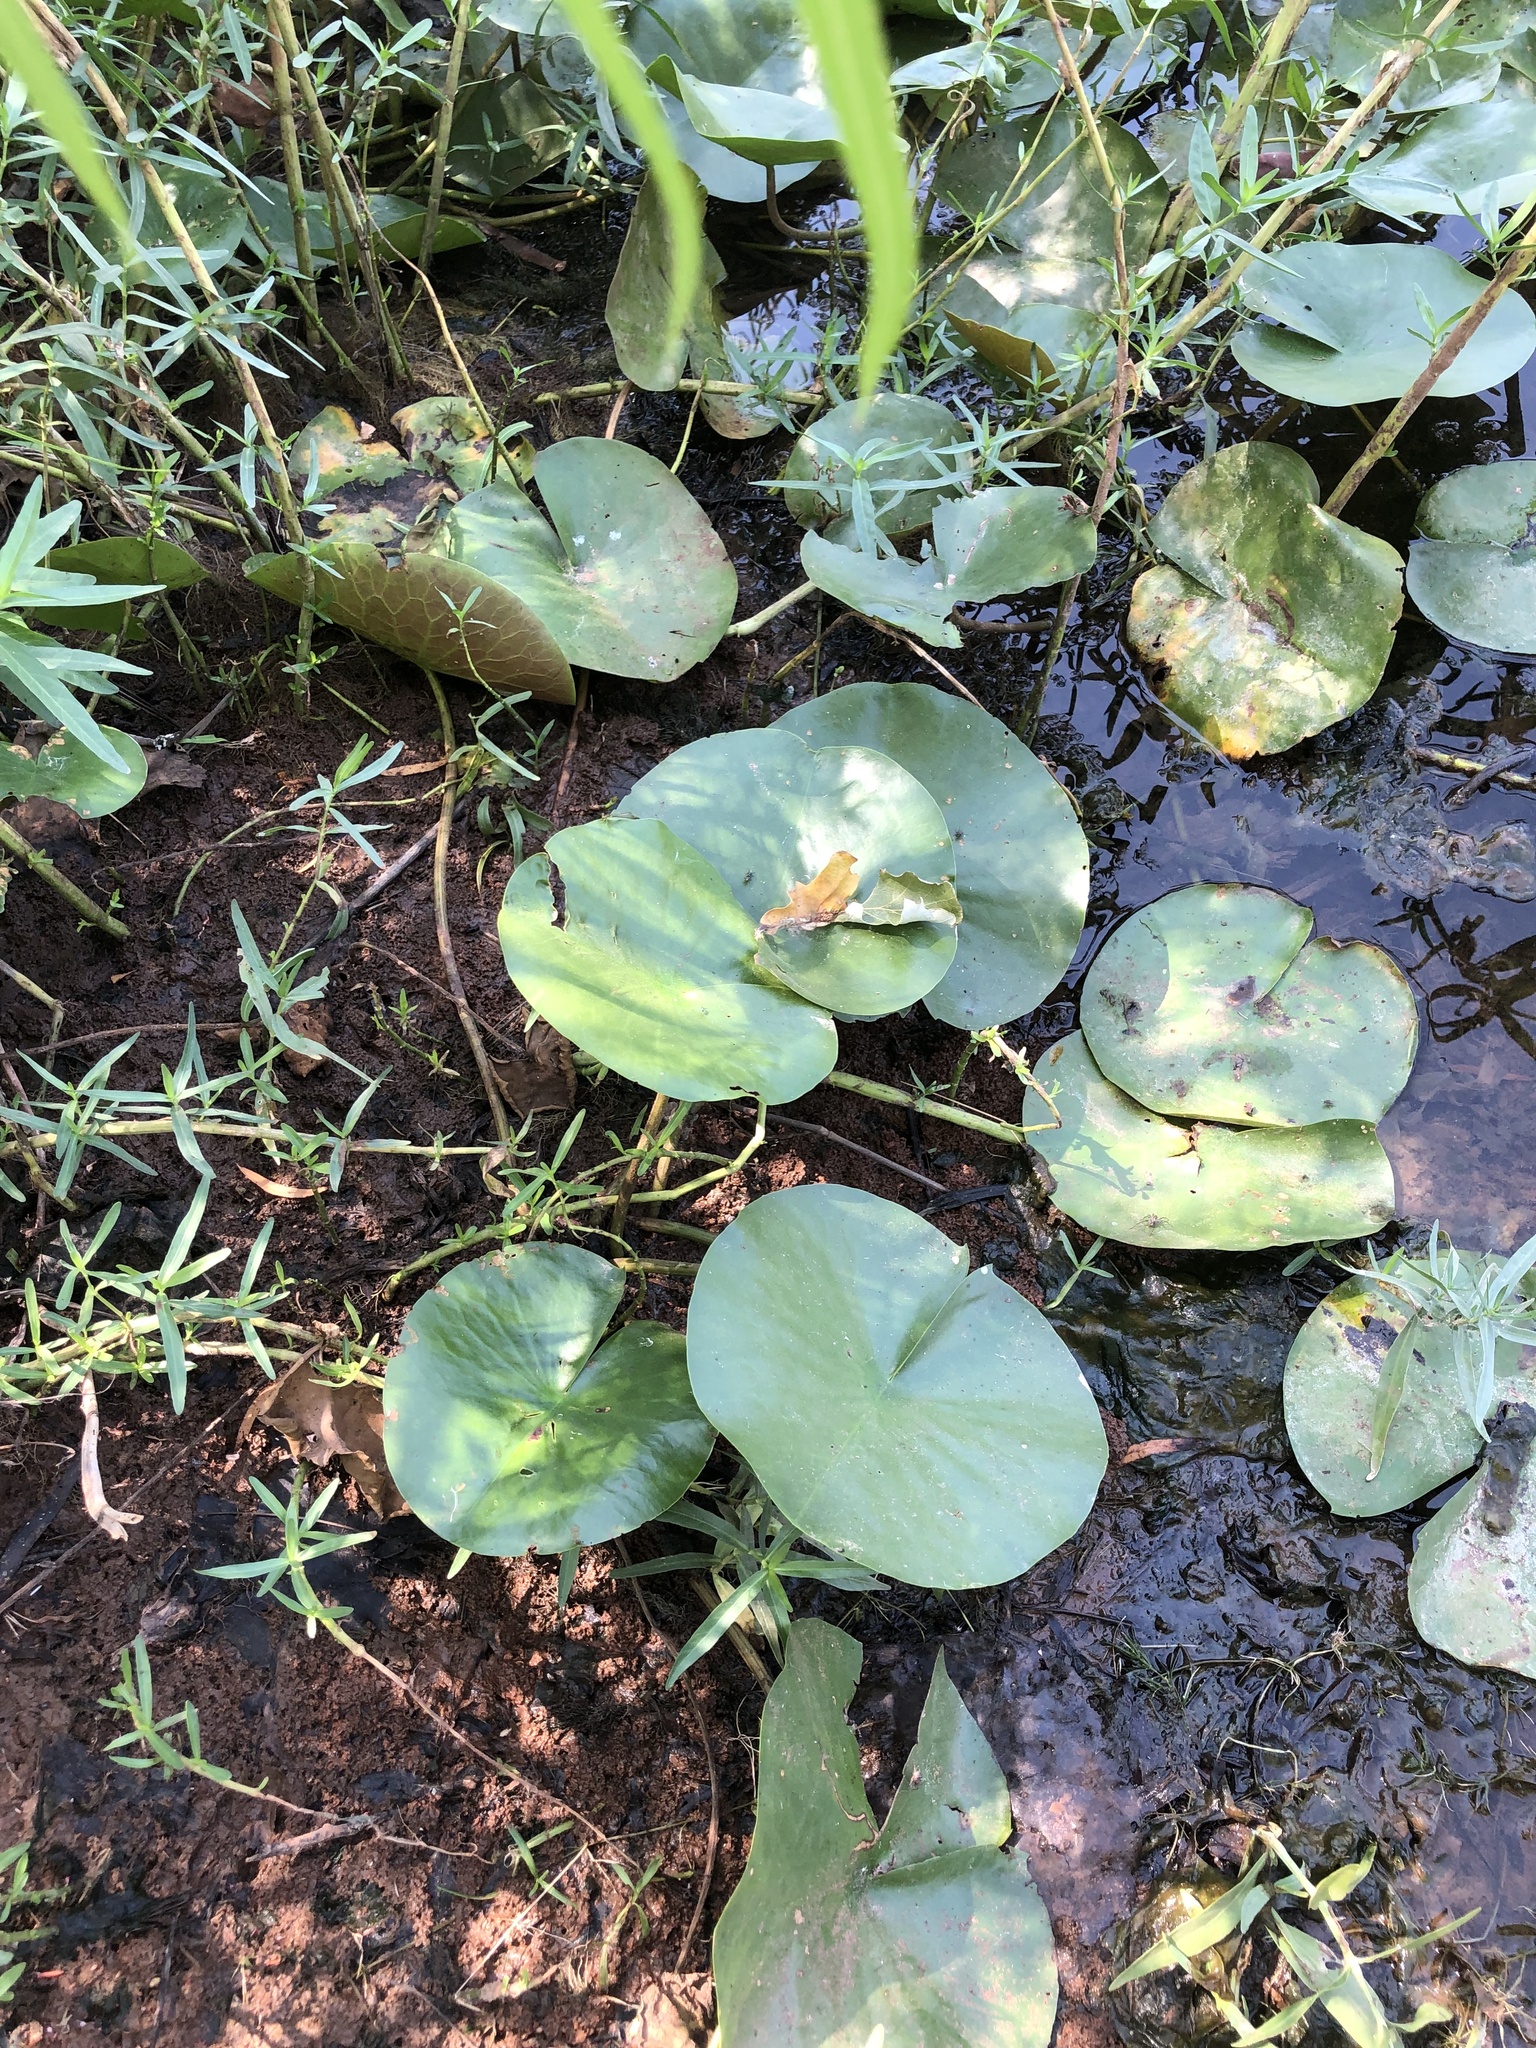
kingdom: Plantae
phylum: Tracheophyta
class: Magnoliopsida
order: Nymphaeales
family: Nymphaeaceae
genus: Nuphar
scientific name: Nuphar advena
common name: Spatter-dock
